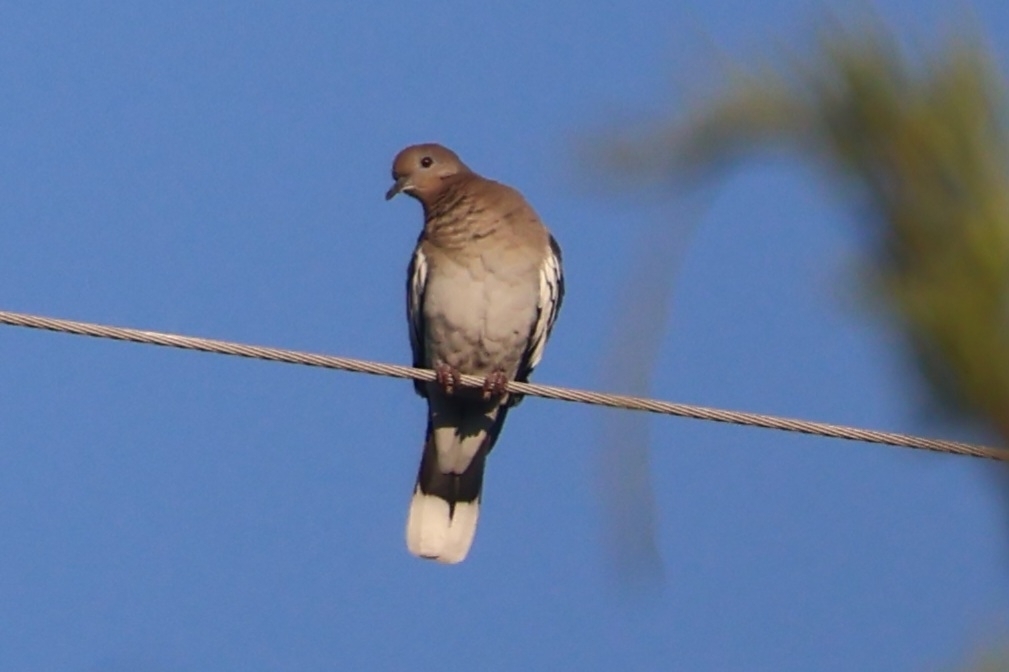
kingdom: Animalia
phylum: Chordata
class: Aves
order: Columbiformes
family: Columbidae
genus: Zenaida
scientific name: Zenaida asiatica
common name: White-winged dove
